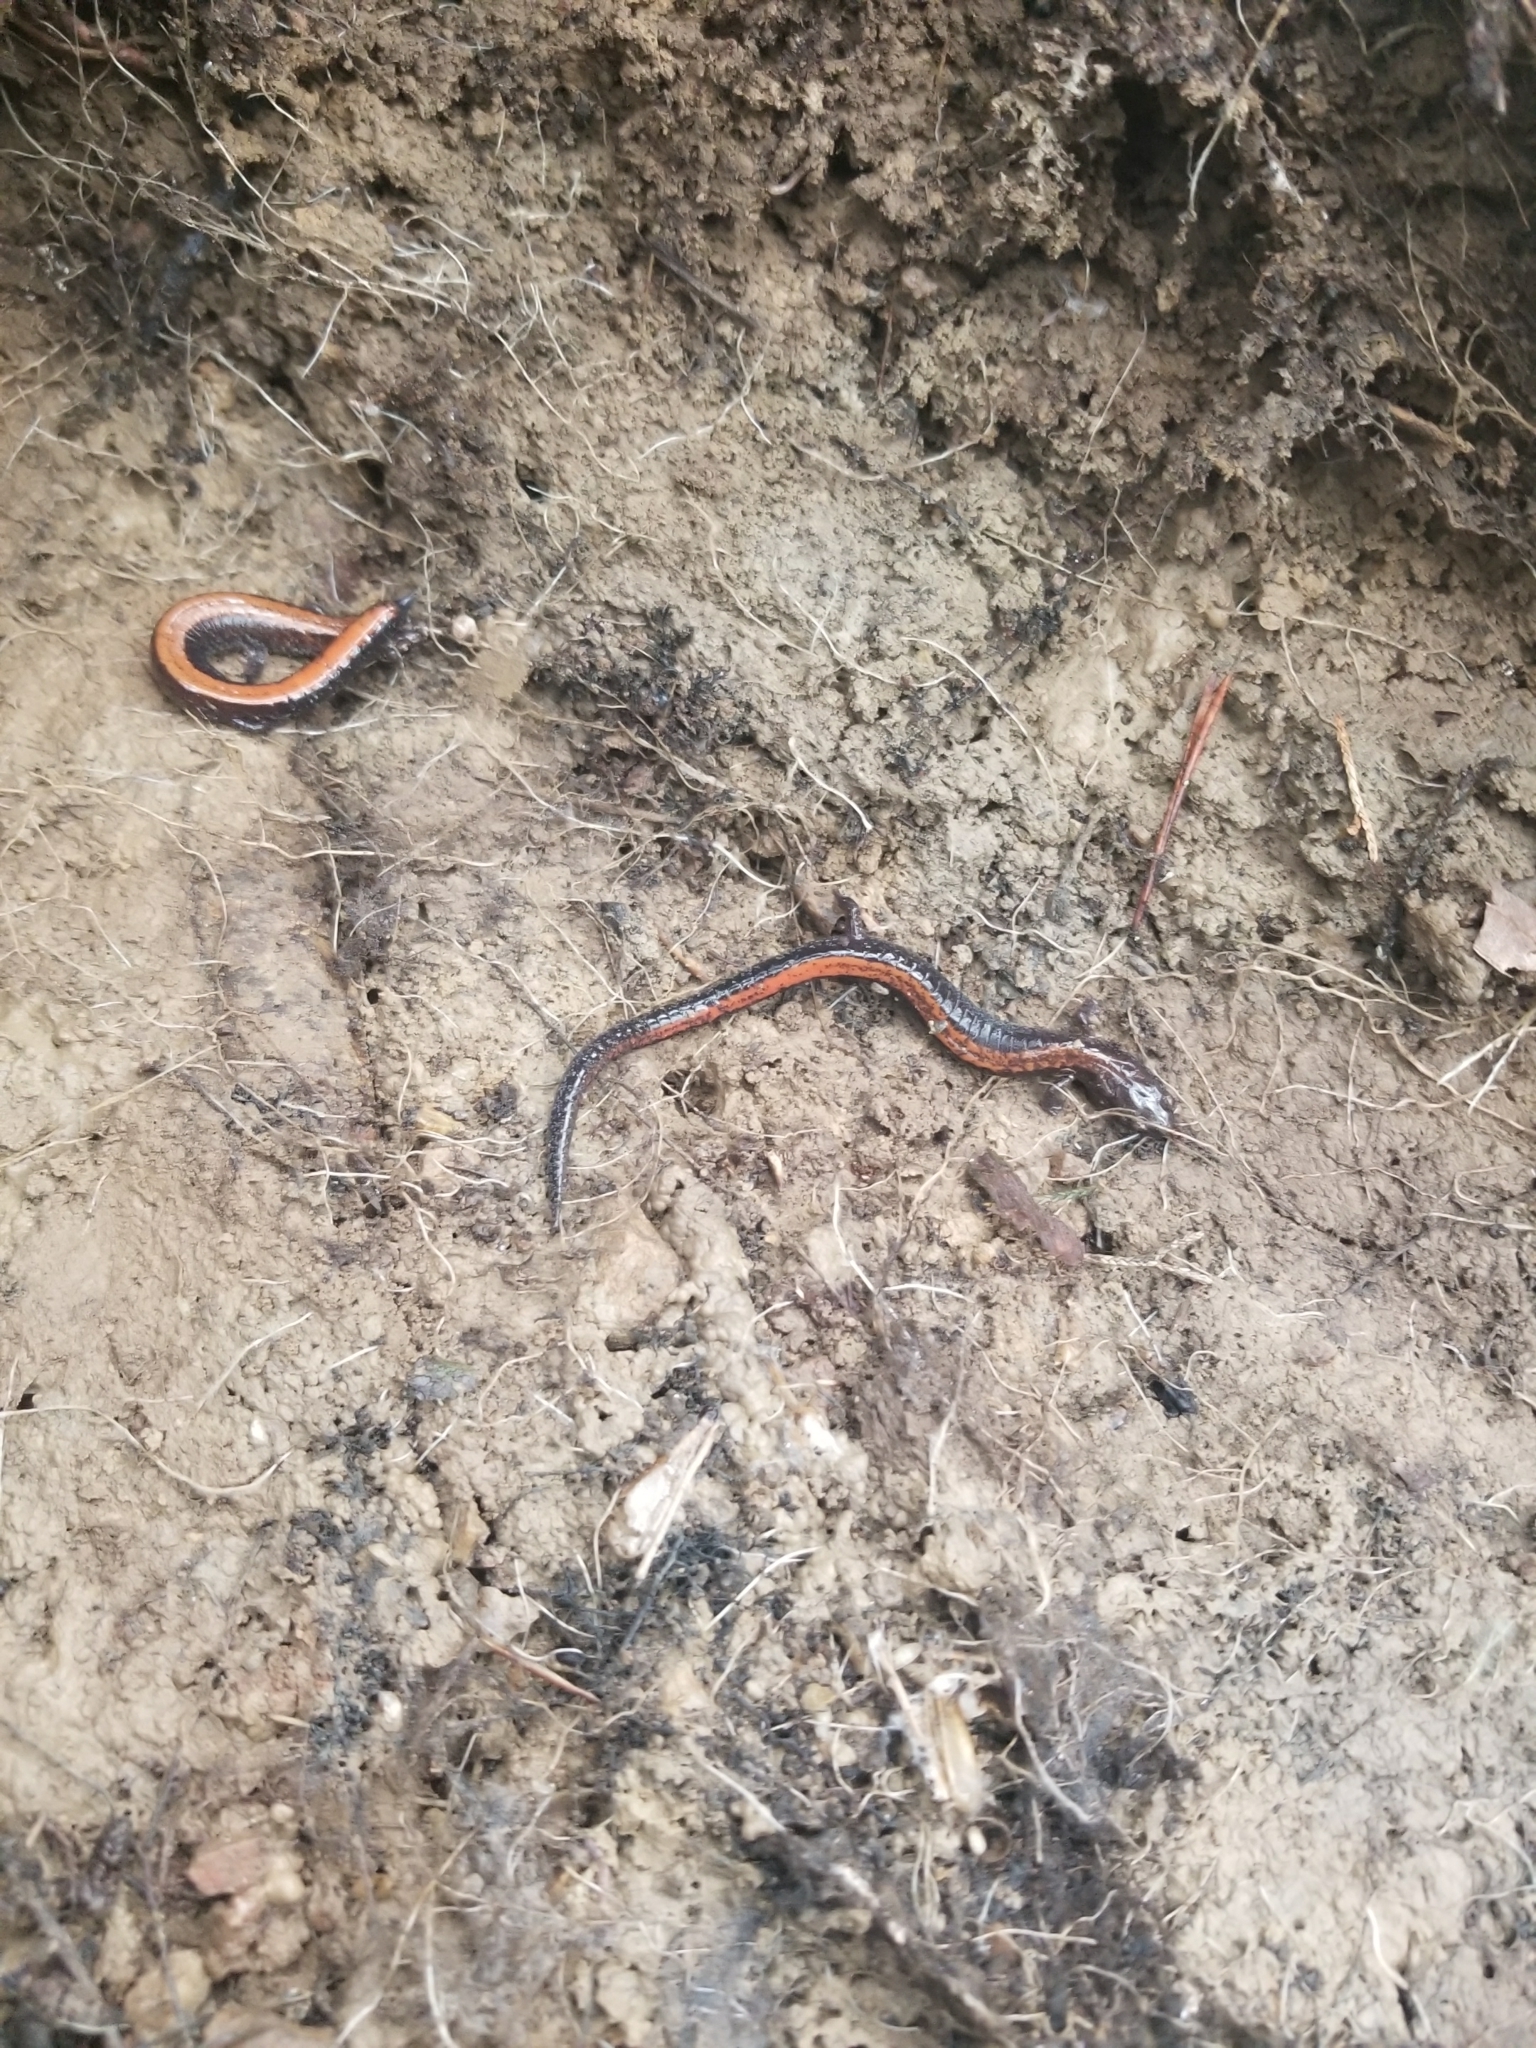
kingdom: Animalia
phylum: Chordata
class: Amphibia
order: Caudata
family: Plethodontidae
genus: Plethodon
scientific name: Plethodon cinereus
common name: Redback salamander
